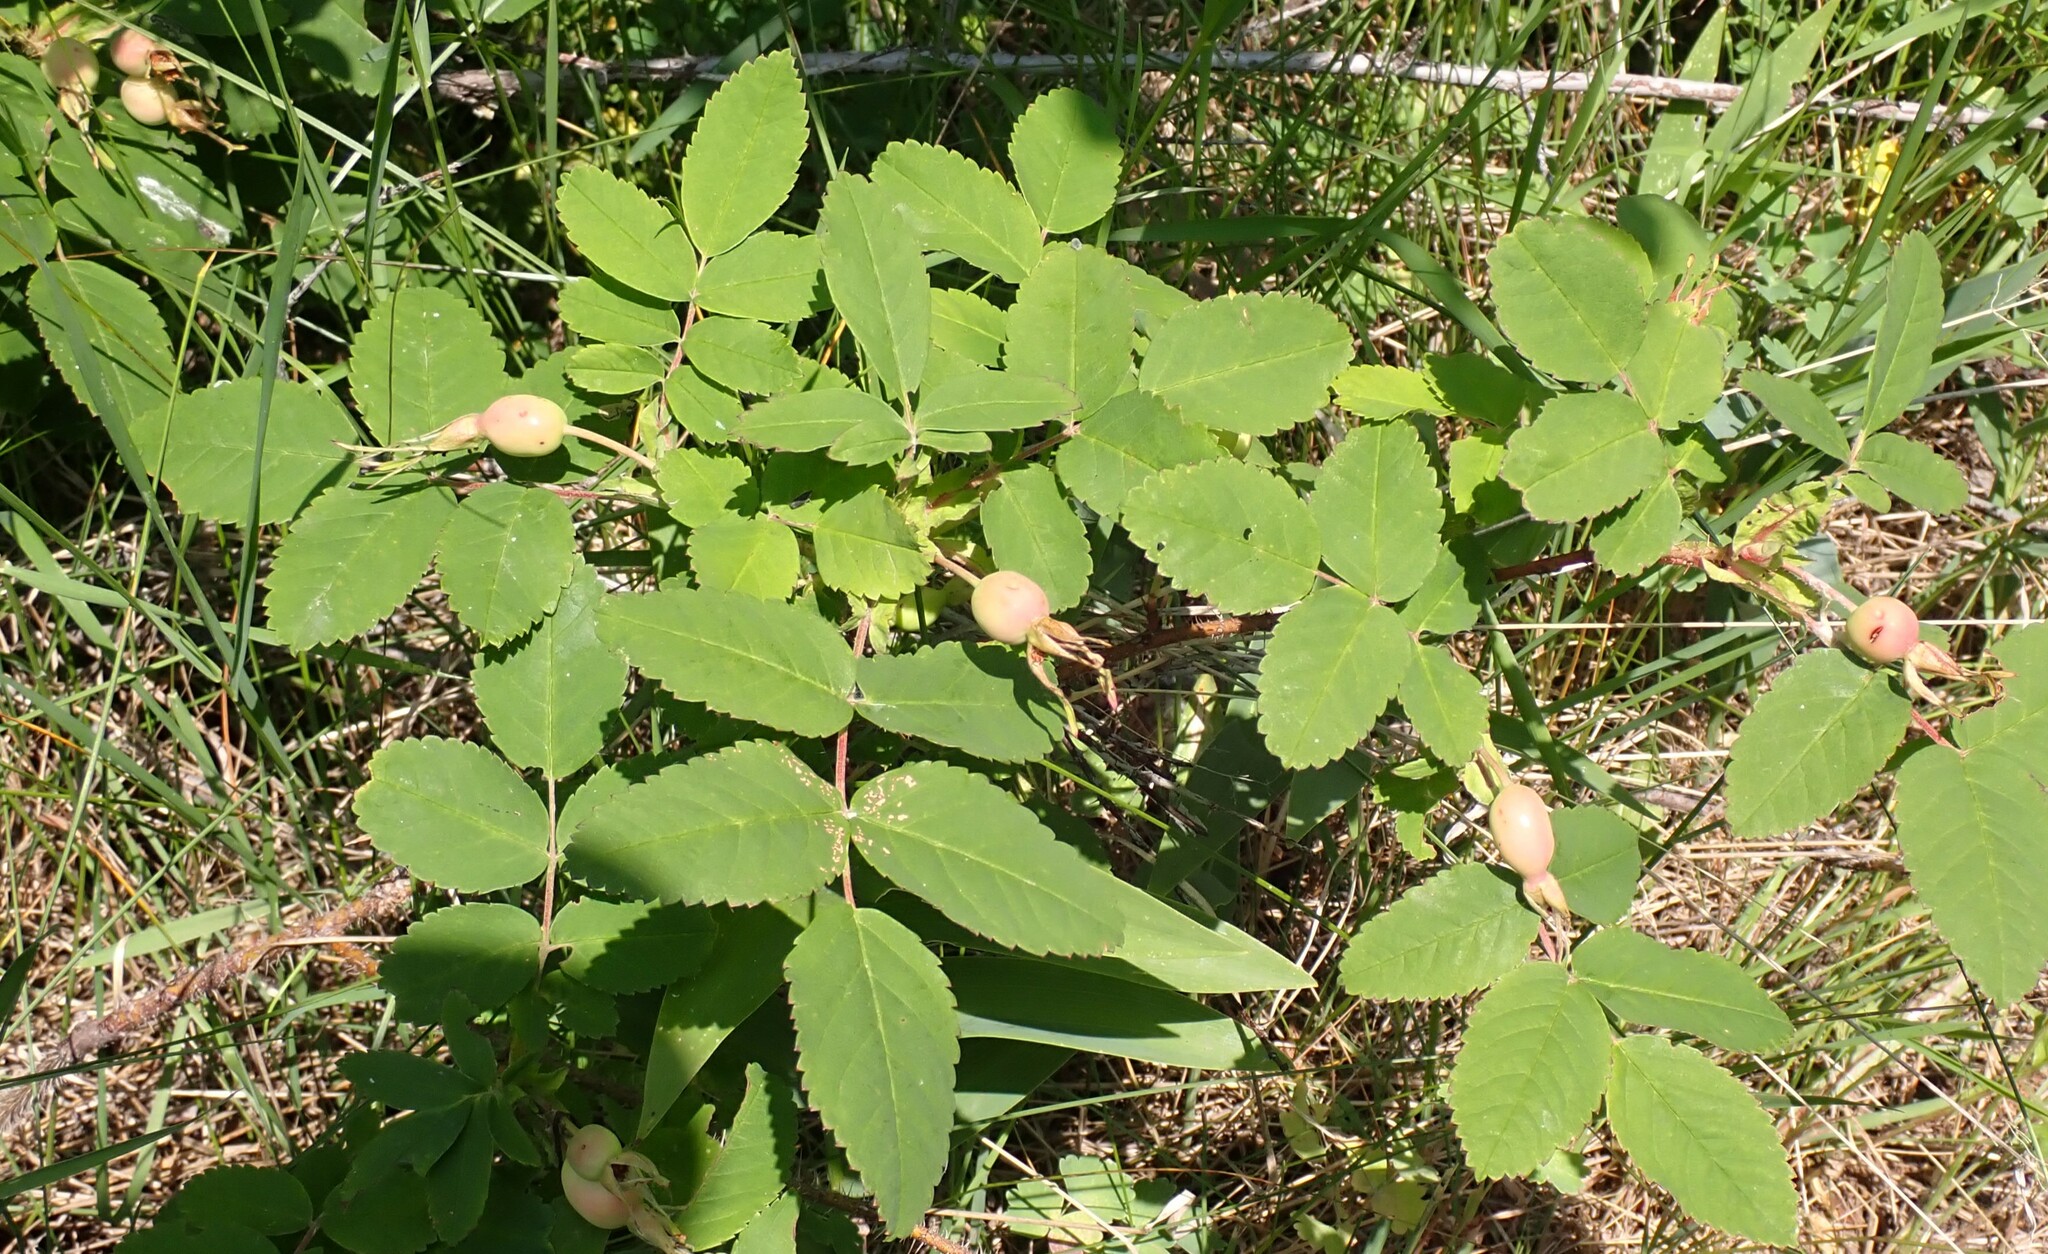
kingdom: Plantae
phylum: Tracheophyta
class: Magnoliopsida
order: Rosales
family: Rosaceae
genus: Rosa
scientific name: Rosa acicularis
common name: Prickly rose
